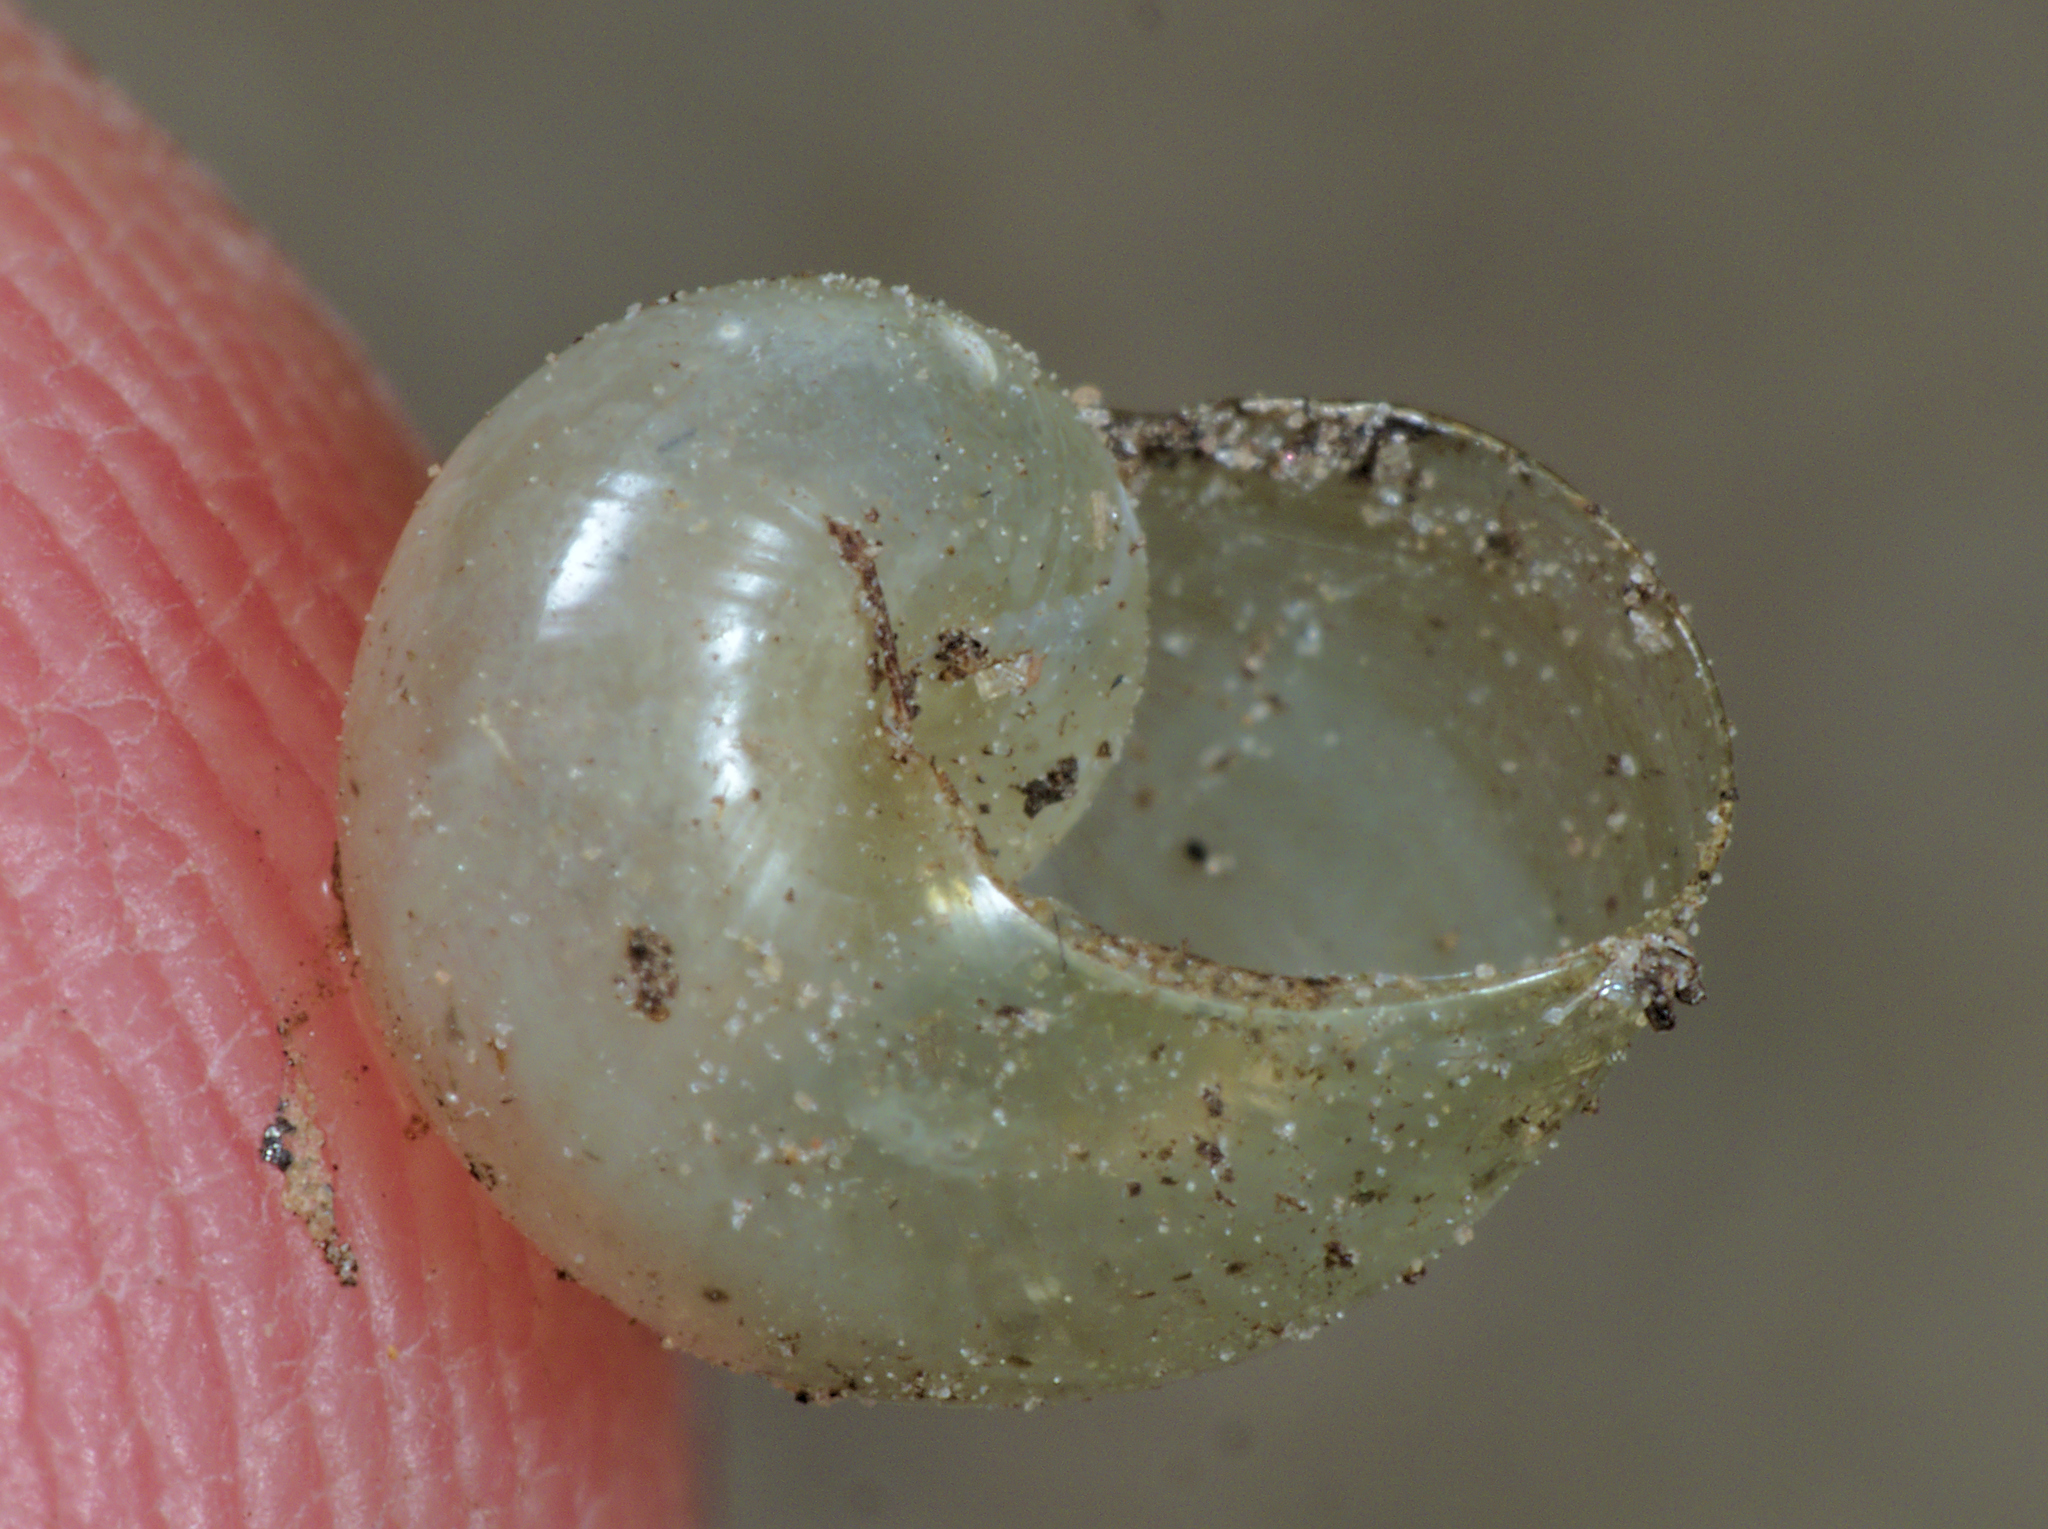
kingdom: Animalia
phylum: Mollusca
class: Gastropoda
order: Stylommatophora
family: Vitrinidae
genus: Vitrina
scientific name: Vitrina pellucida
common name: Pellucid glass snail
